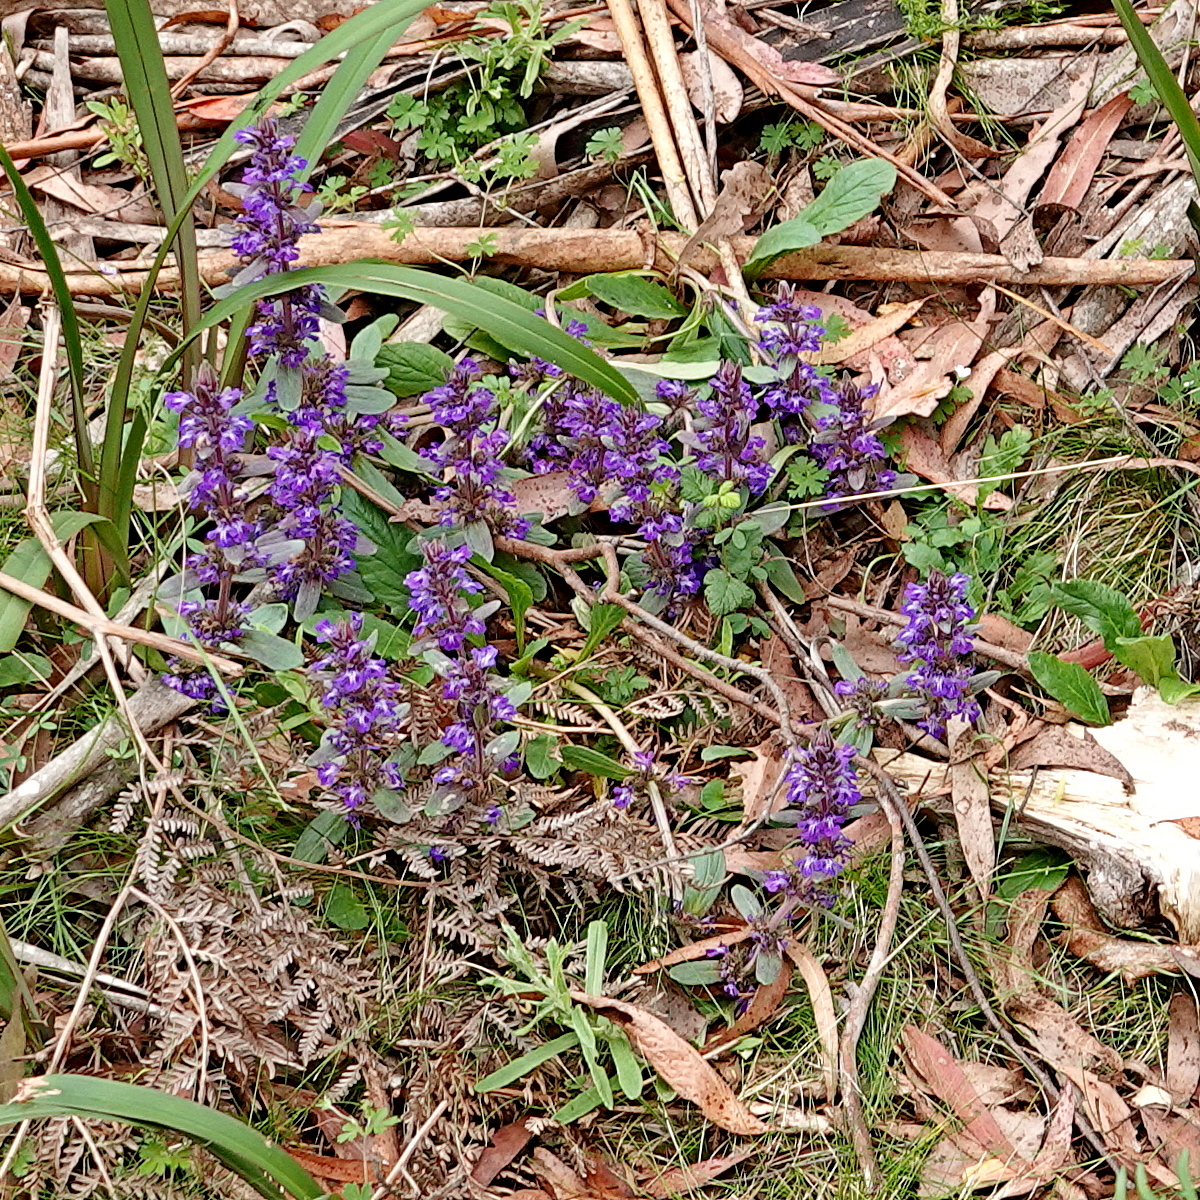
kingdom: Plantae
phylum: Tracheophyta
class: Magnoliopsida
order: Lamiales
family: Lamiaceae
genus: Ajuga
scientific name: Ajuga australis
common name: Australian bugle
